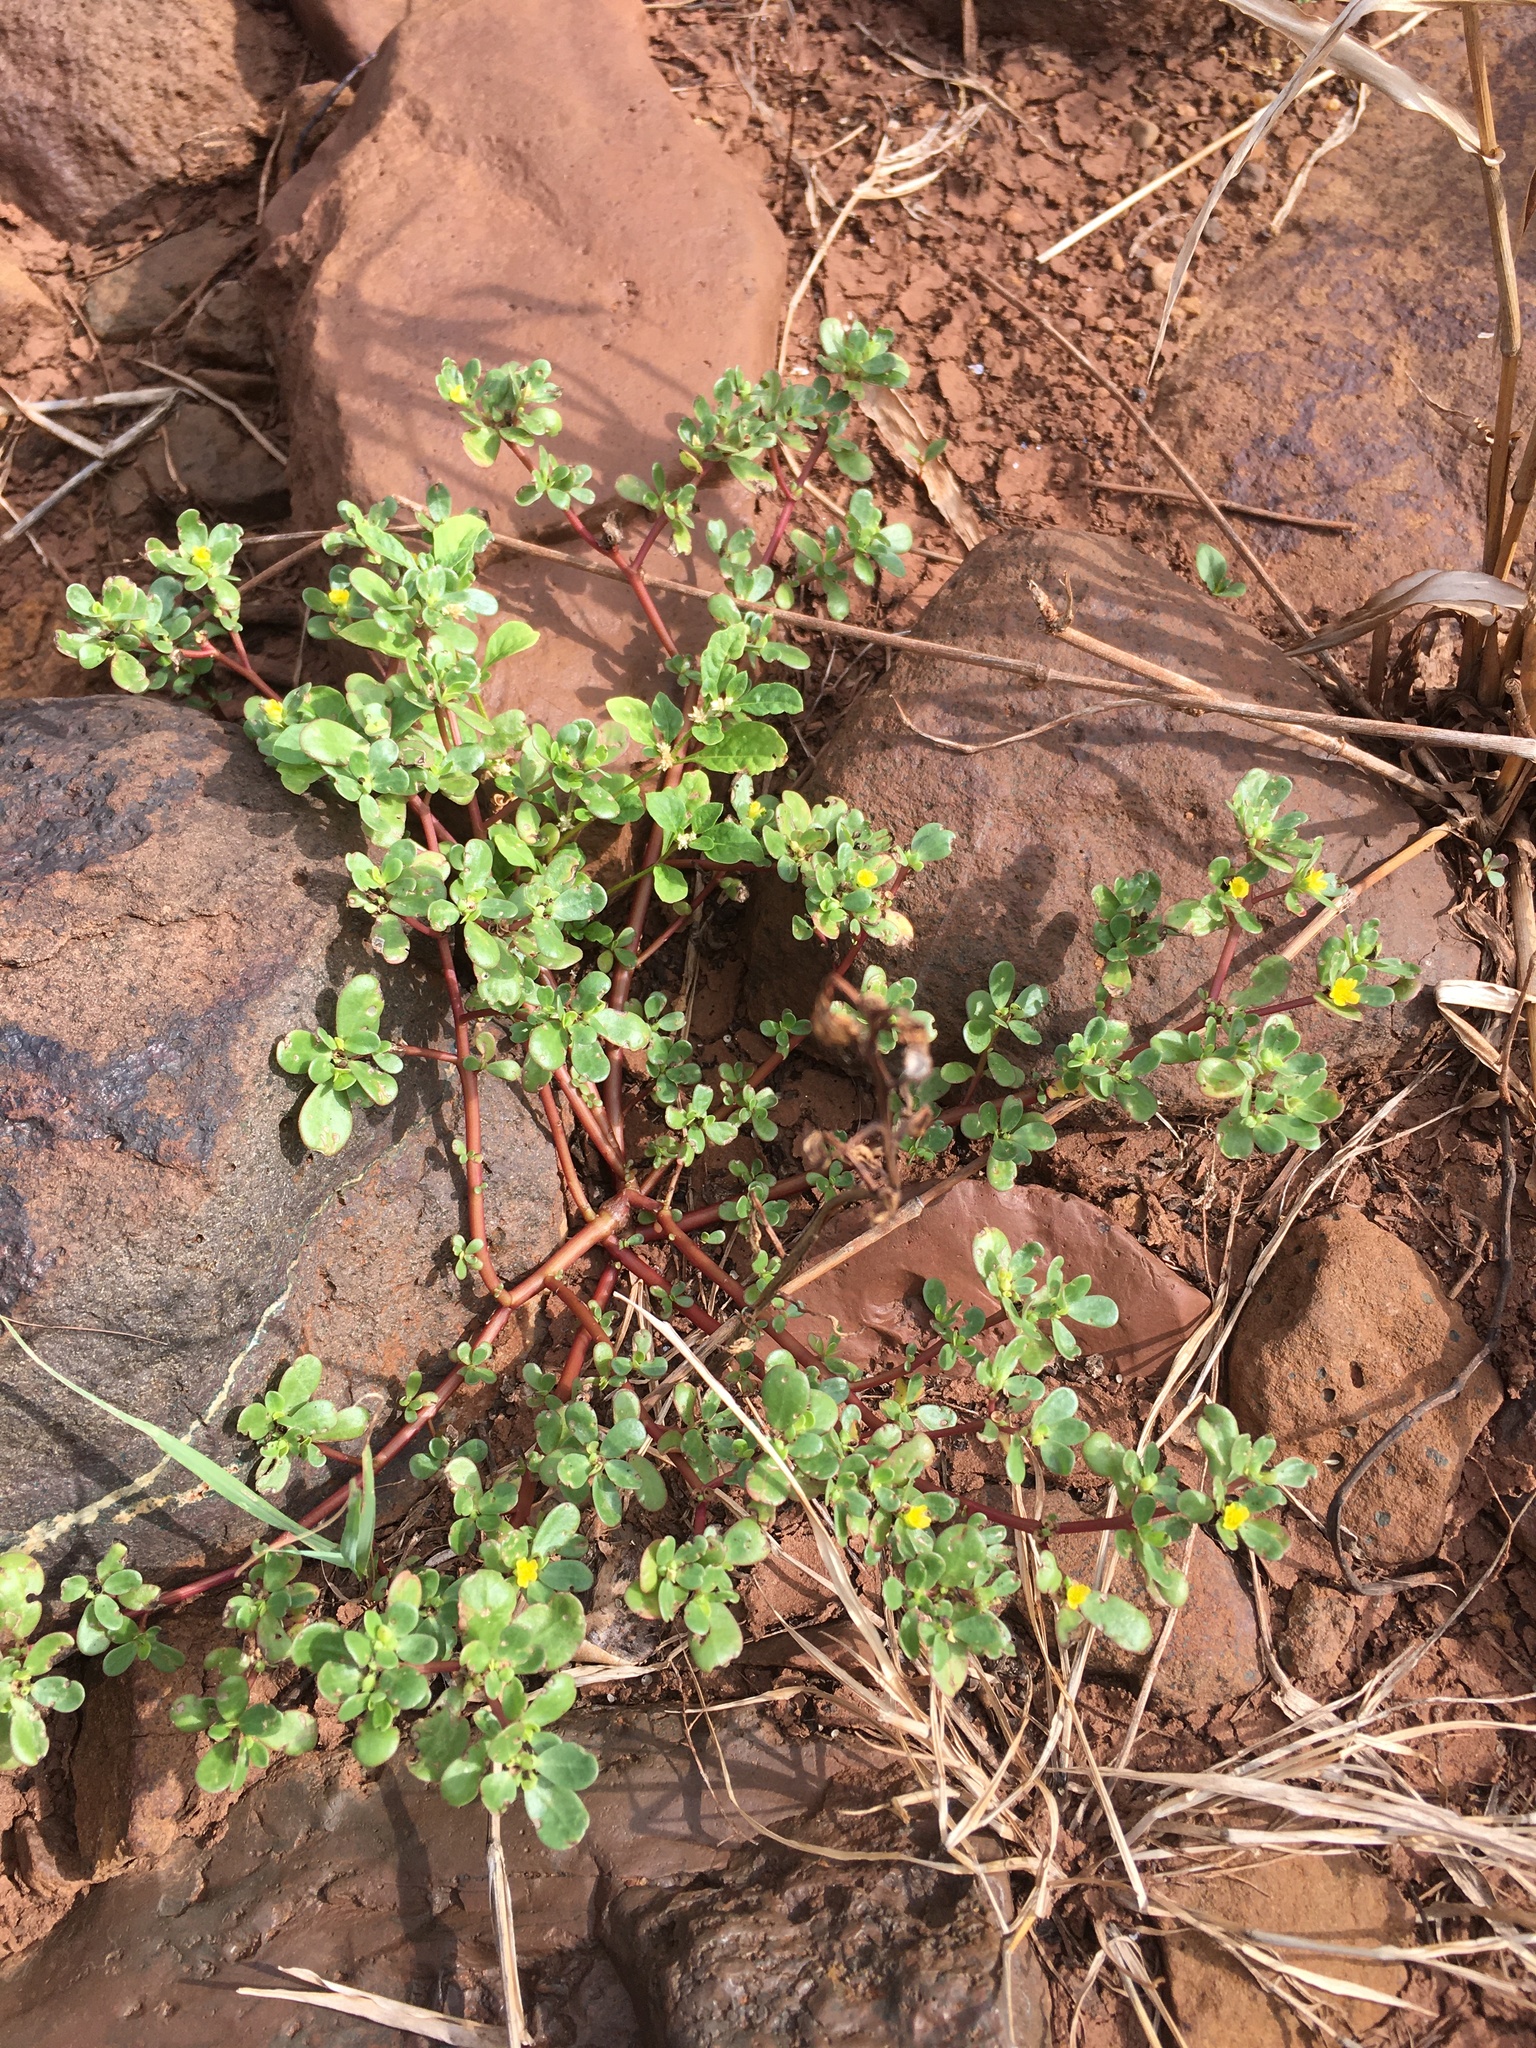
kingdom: Plantae
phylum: Tracheophyta
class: Magnoliopsida
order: Caryophyllales
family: Portulacaceae
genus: Portulaca
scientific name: Portulaca oleracea
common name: Common purslane
